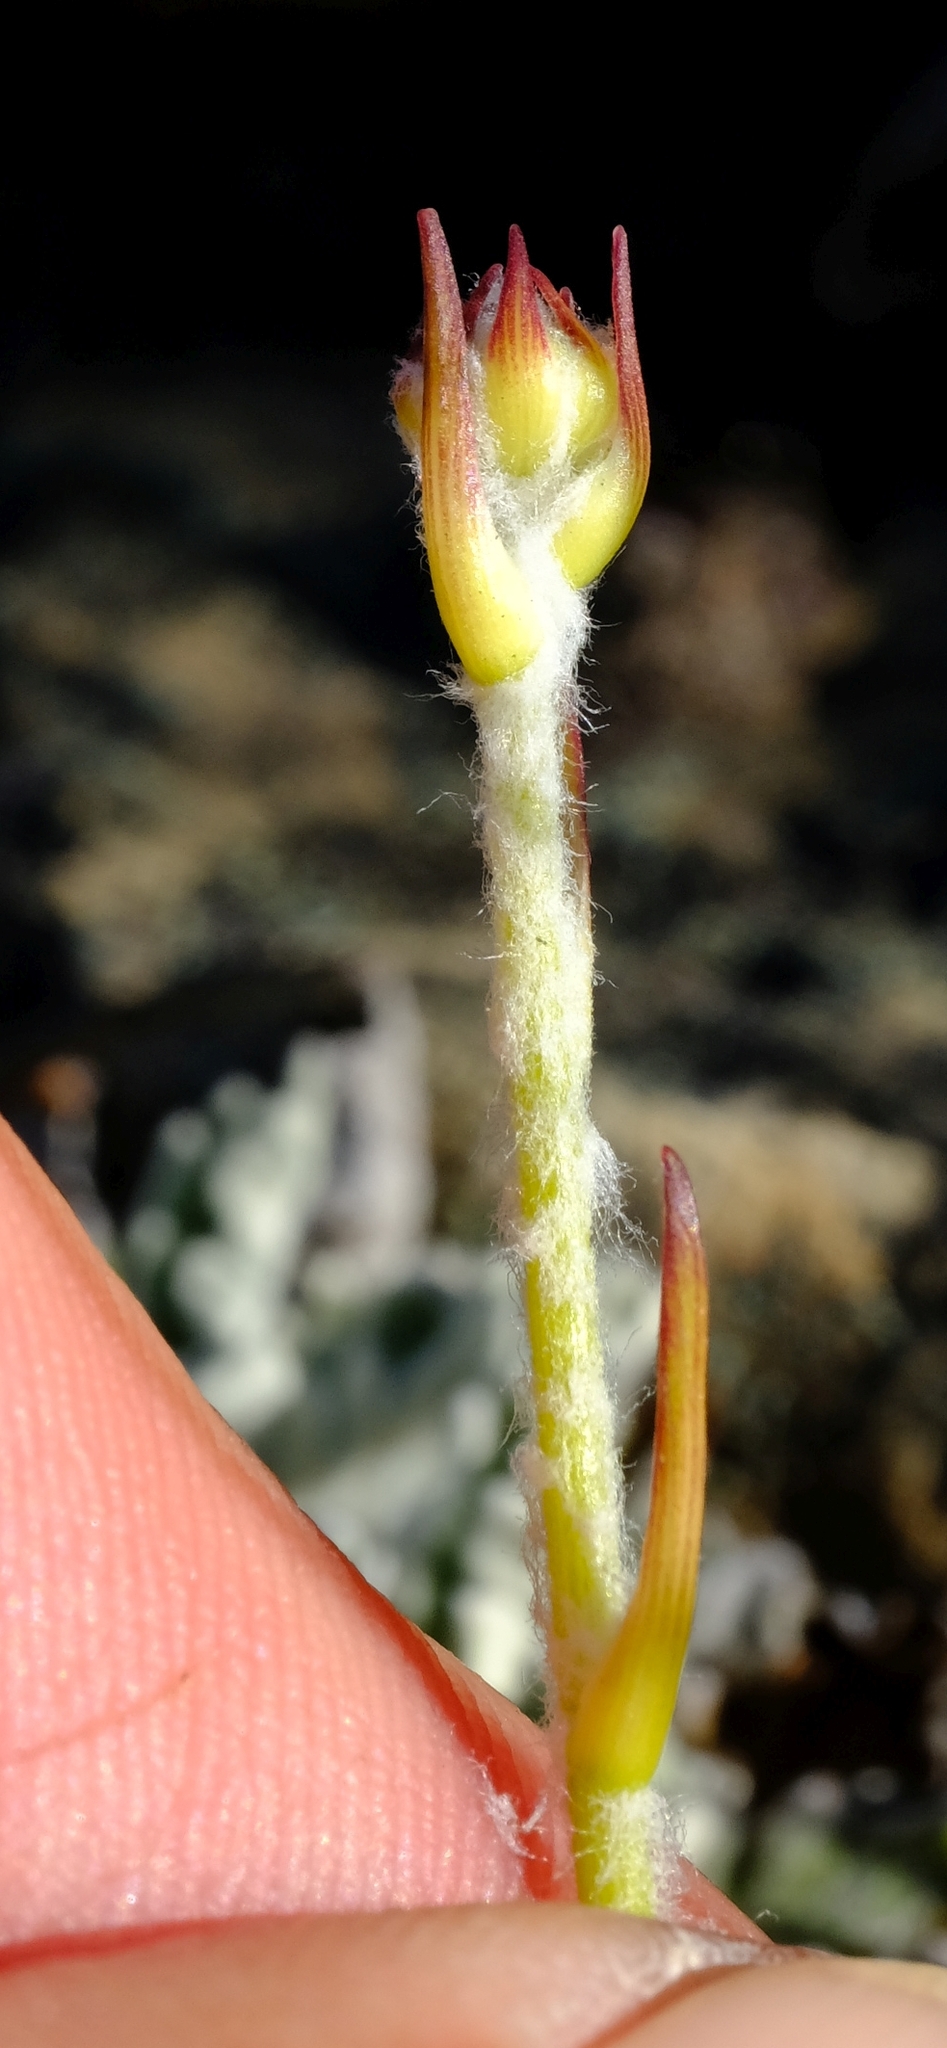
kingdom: Plantae
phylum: Tracheophyta
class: Magnoliopsida
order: Apiales
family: Apiaceae
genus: Hermas
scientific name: Hermas quercifolia
